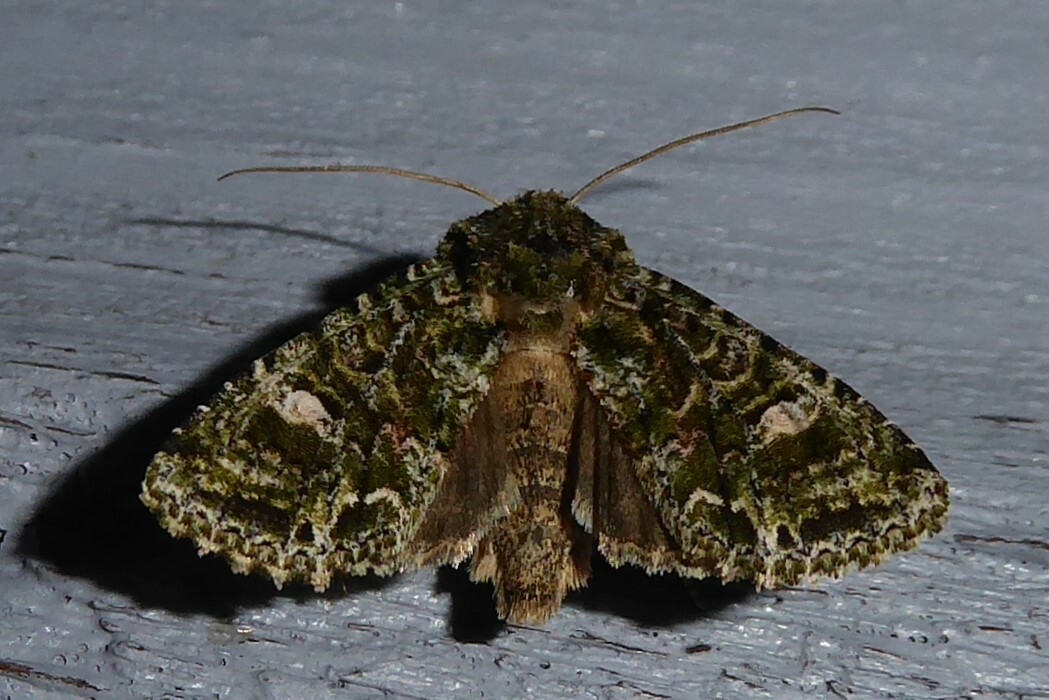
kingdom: Animalia
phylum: Arthropoda
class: Insecta
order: Lepidoptera
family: Noctuidae
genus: Ichneutica
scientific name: Ichneutica
